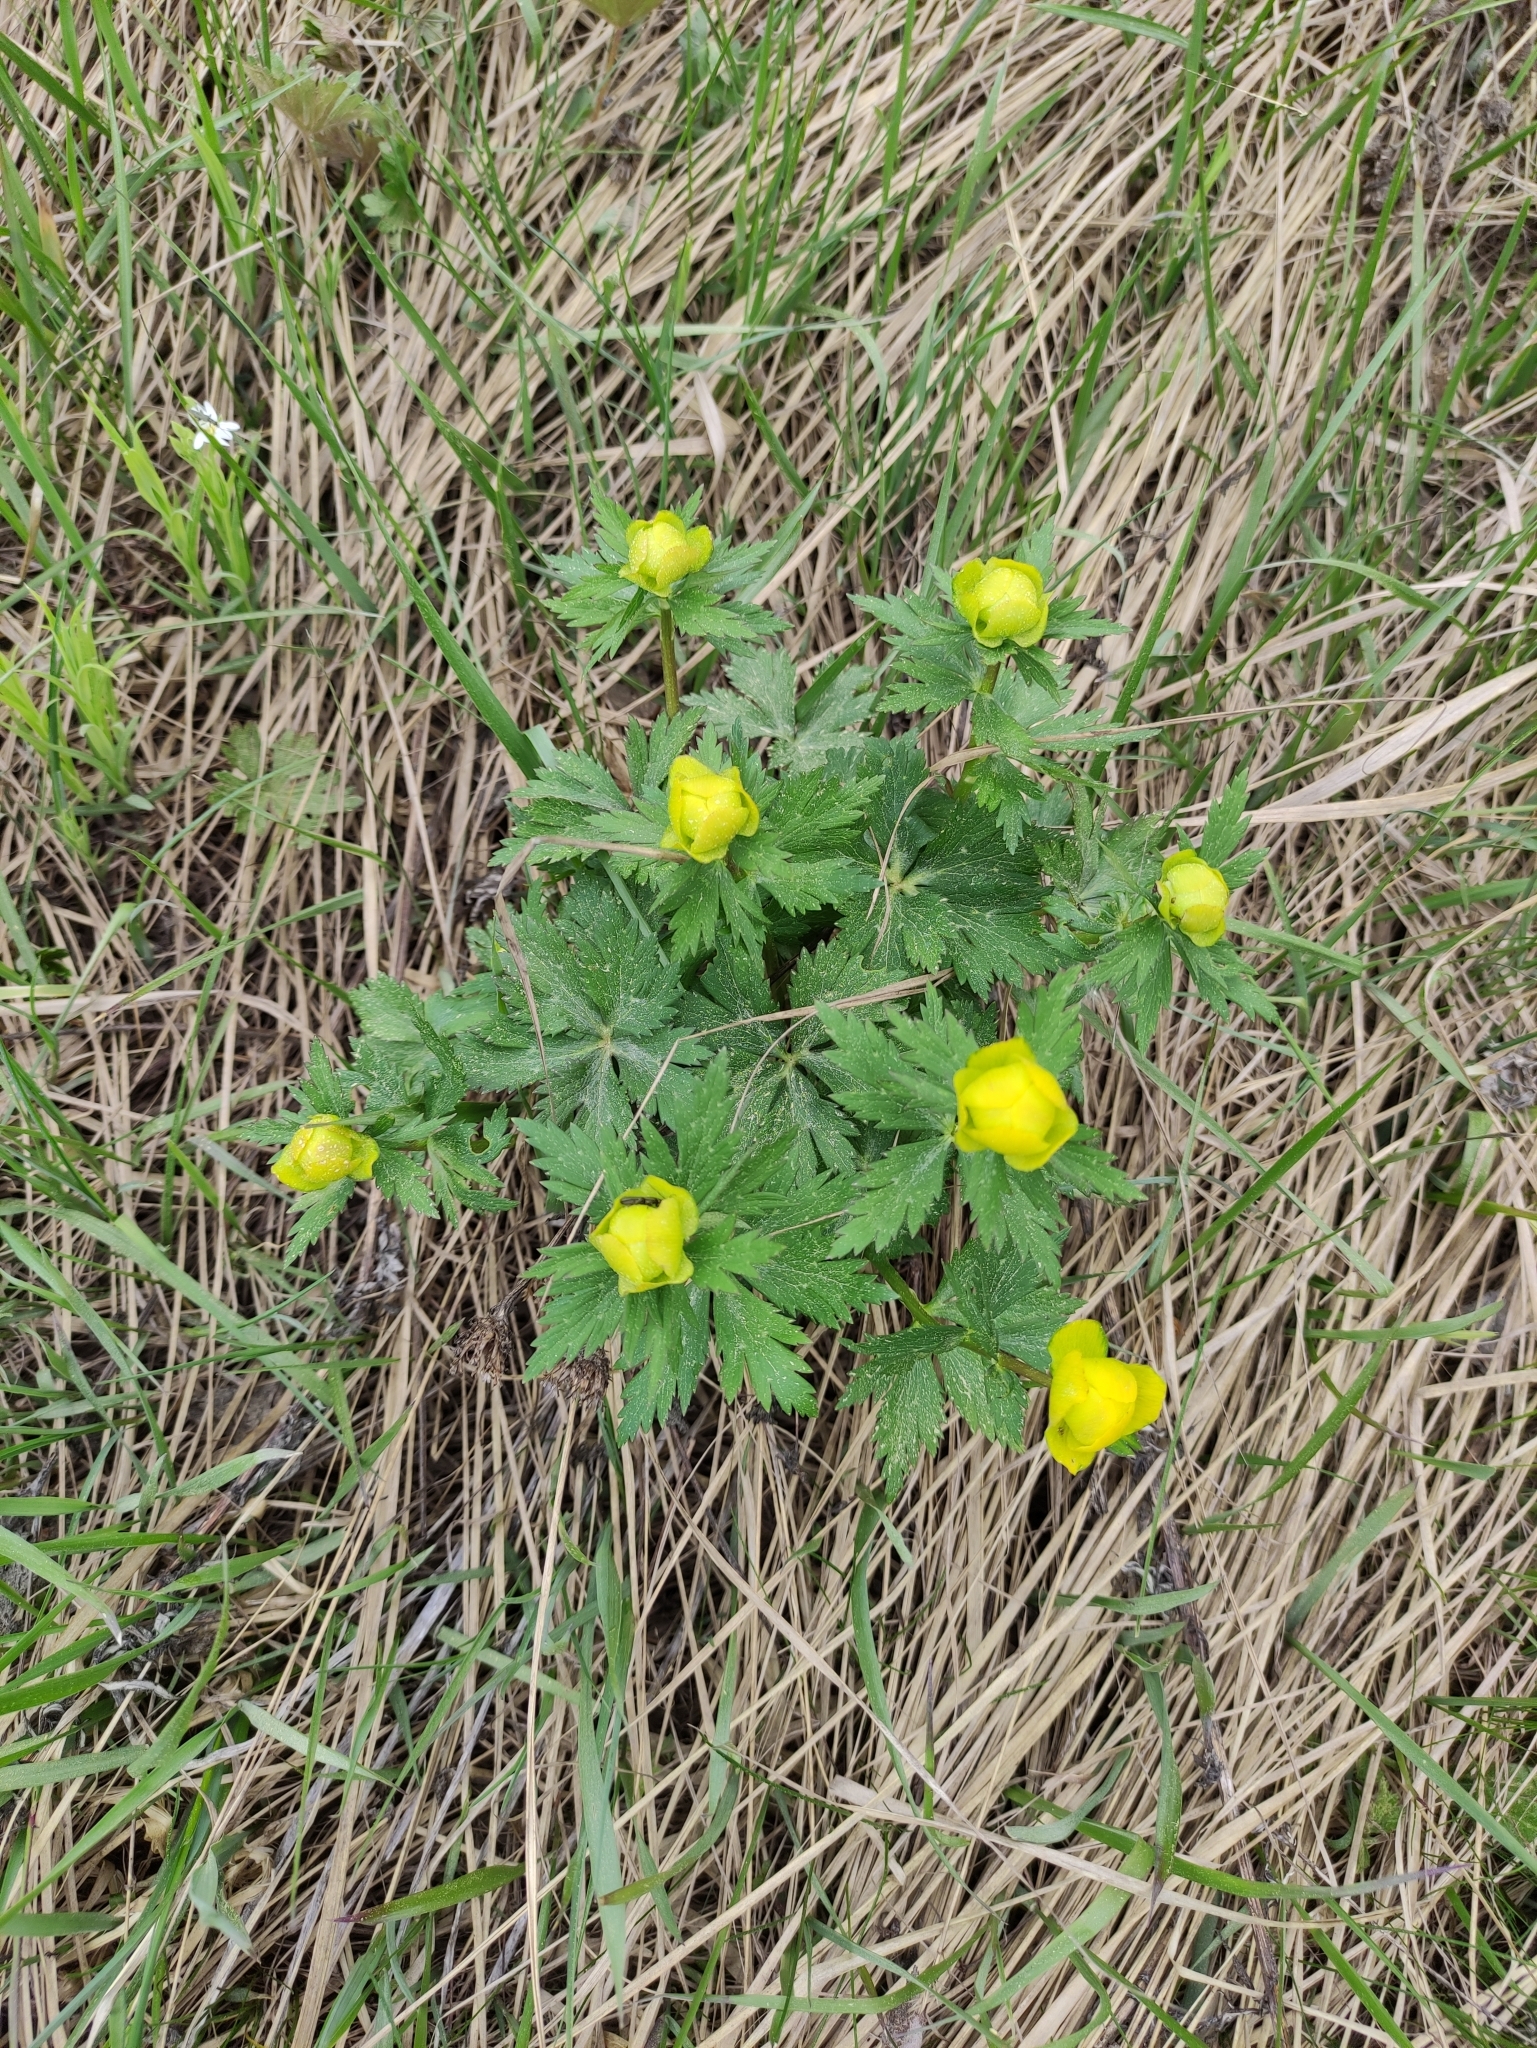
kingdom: Plantae
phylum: Tracheophyta
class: Magnoliopsida
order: Ranunculales
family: Ranunculaceae
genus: Trollius
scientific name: Trollius europaeus
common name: European globeflower
